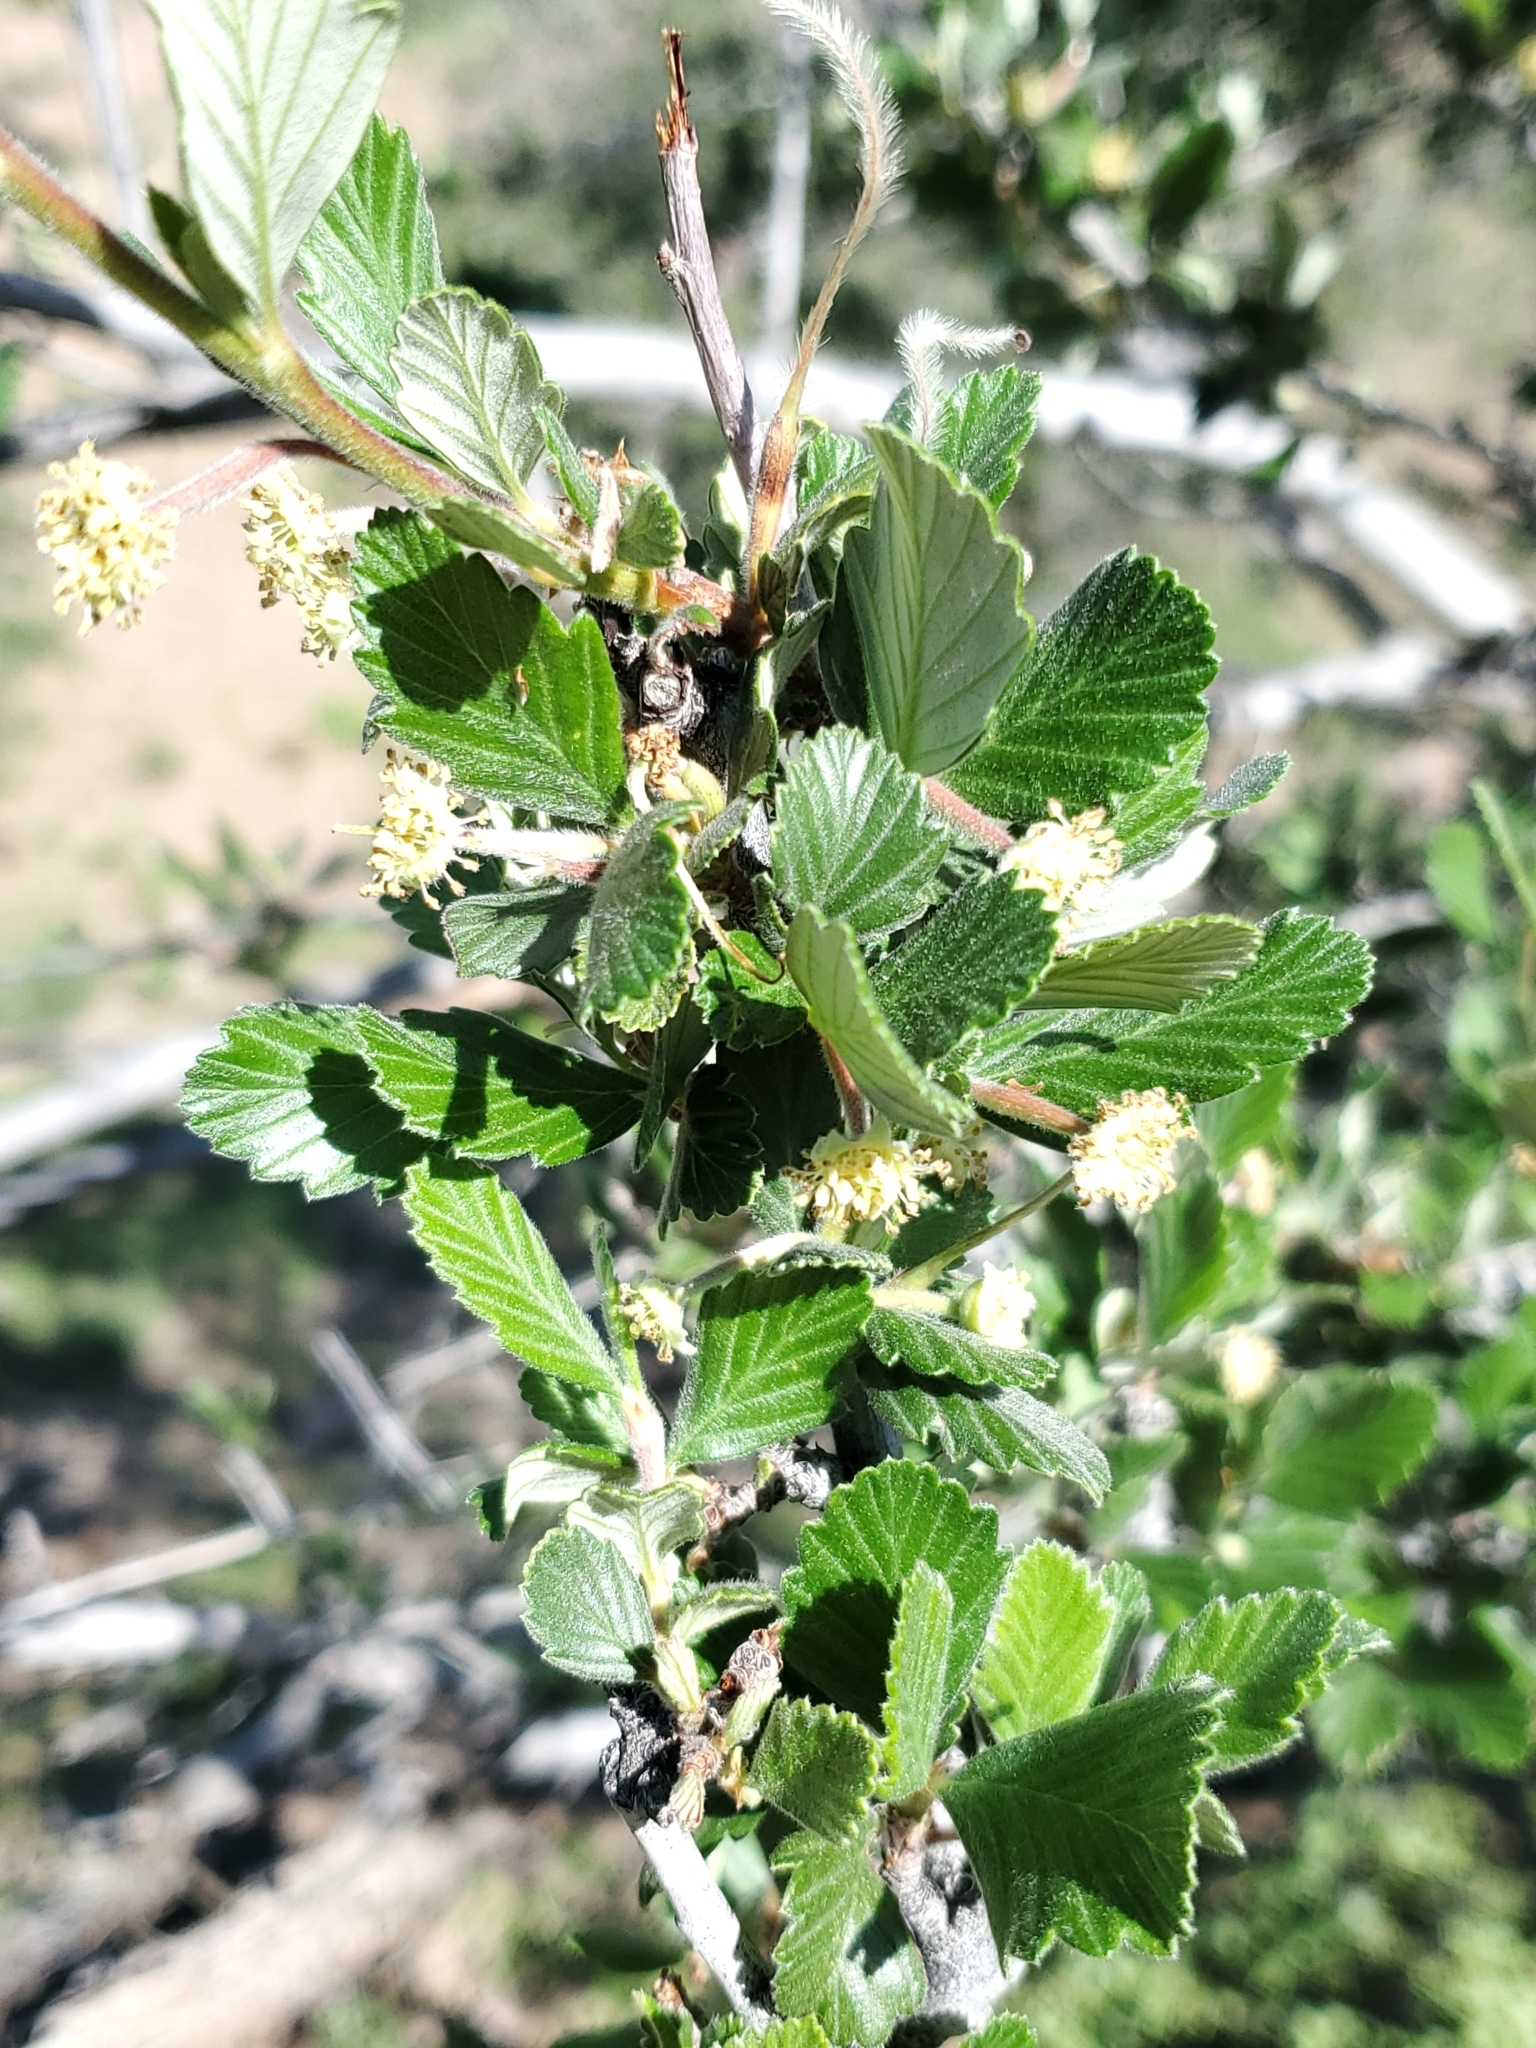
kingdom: Plantae
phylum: Tracheophyta
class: Magnoliopsida
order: Rosales
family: Rosaceae
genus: Cercocarpus
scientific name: Cercocarpus montanus
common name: Alder-leaf cercocarpus
